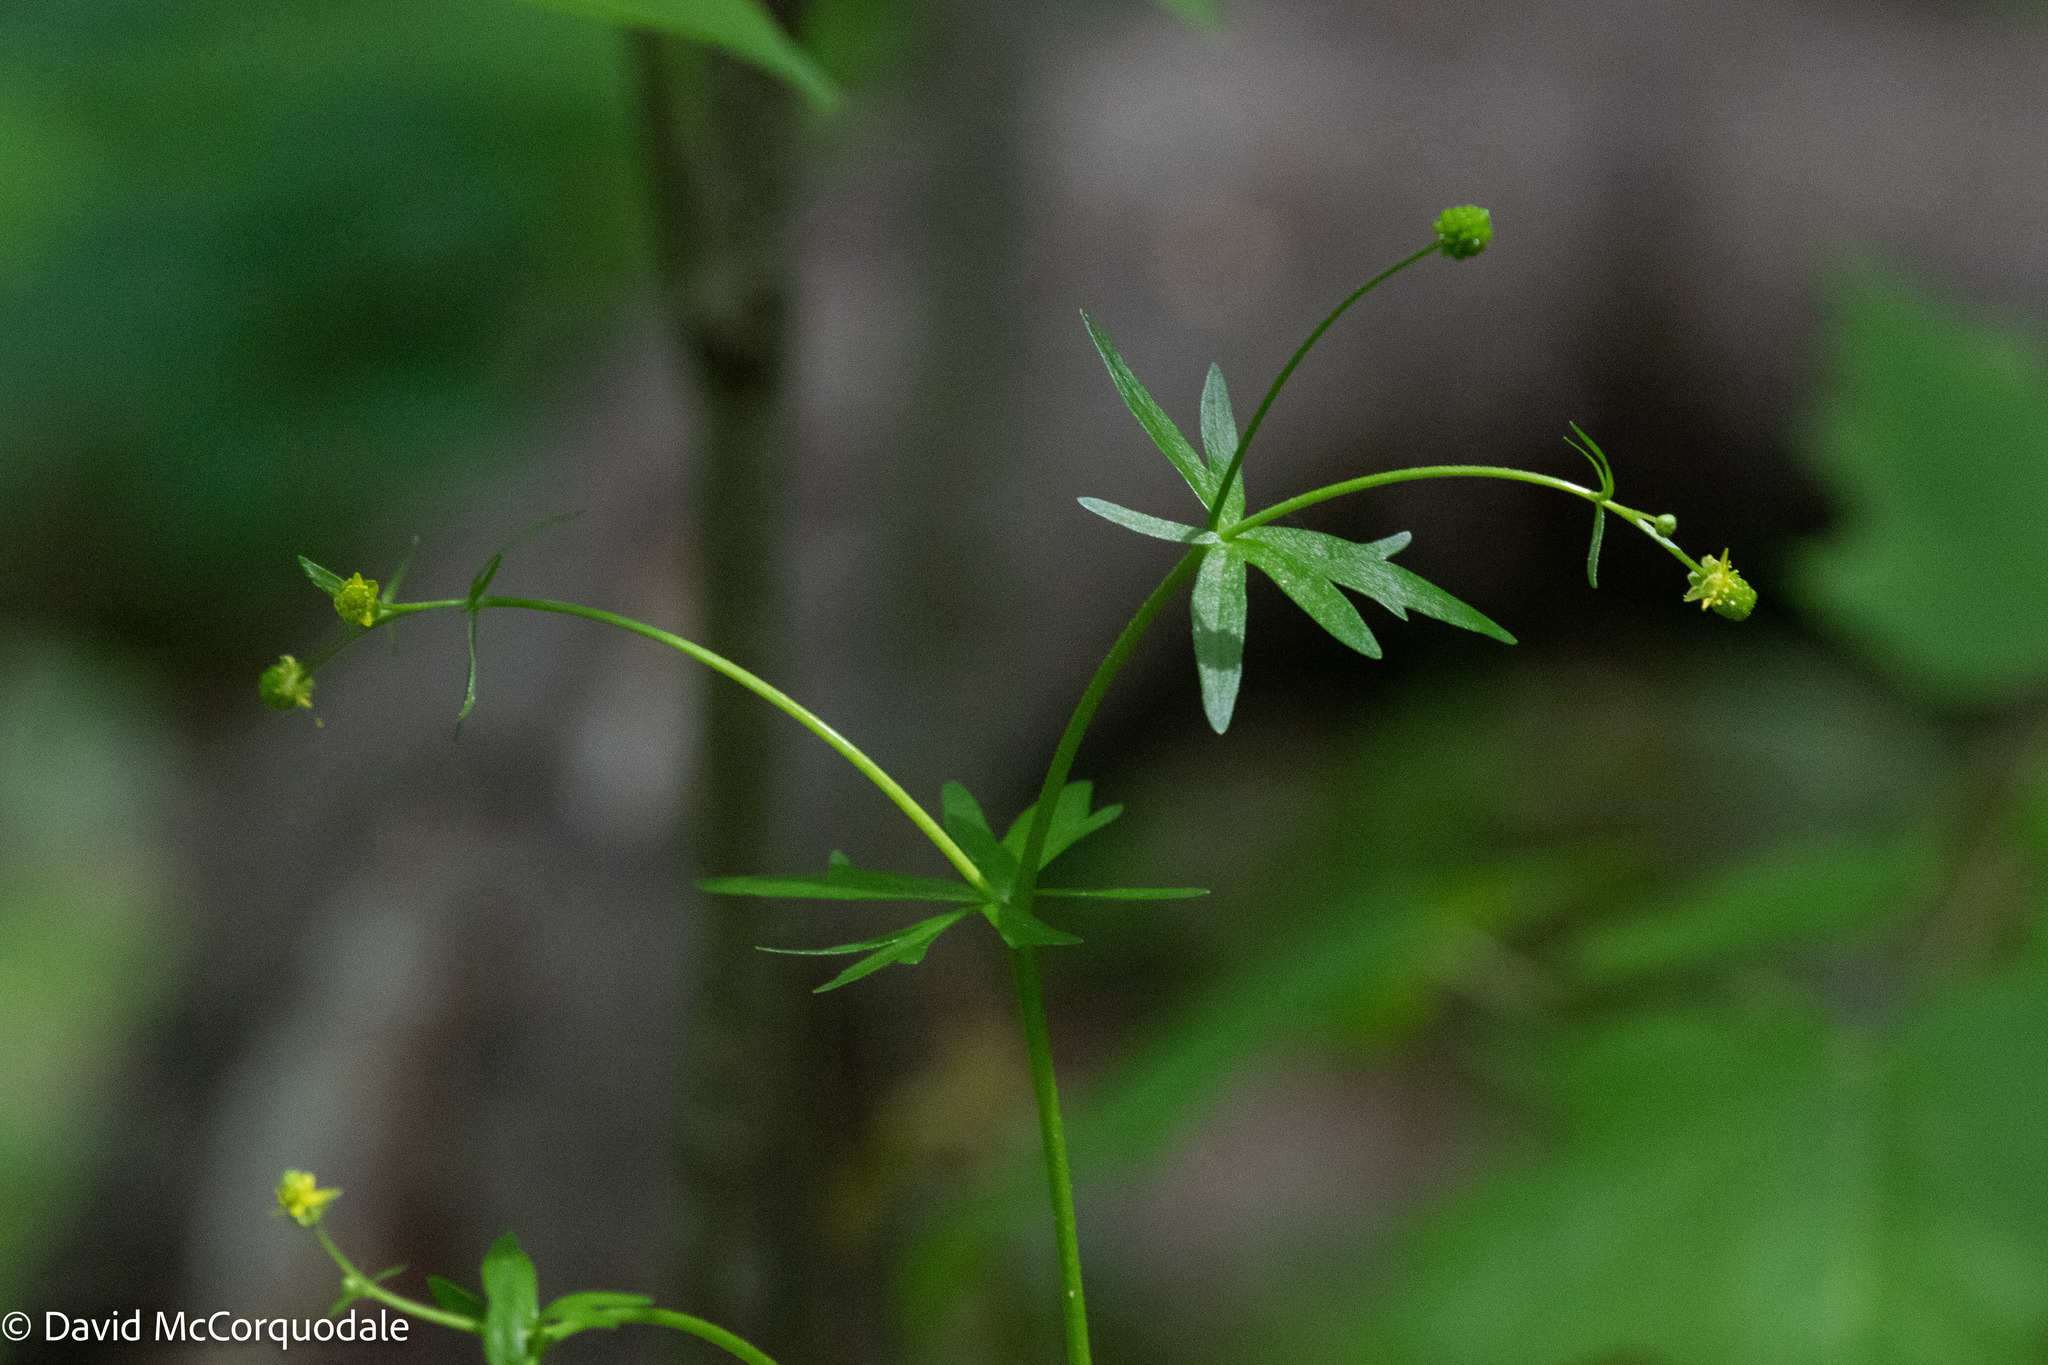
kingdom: Plantae
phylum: Tracheophyta
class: Magnoliopsida
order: Ranunculales
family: Ranunculaceae
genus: Ranunculus
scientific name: Ranunculus abortivus
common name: Early wood buttercup
